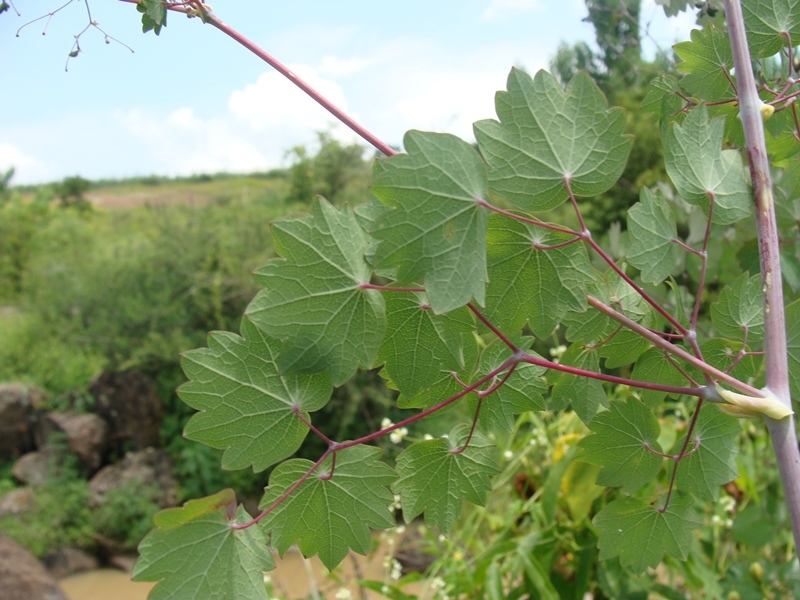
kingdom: Plantae
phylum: Tracheophyta
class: Magnoliopsida
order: Ranunculales
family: Ranunculaceae
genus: Thalictrum
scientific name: Thalictrum strigillosum
